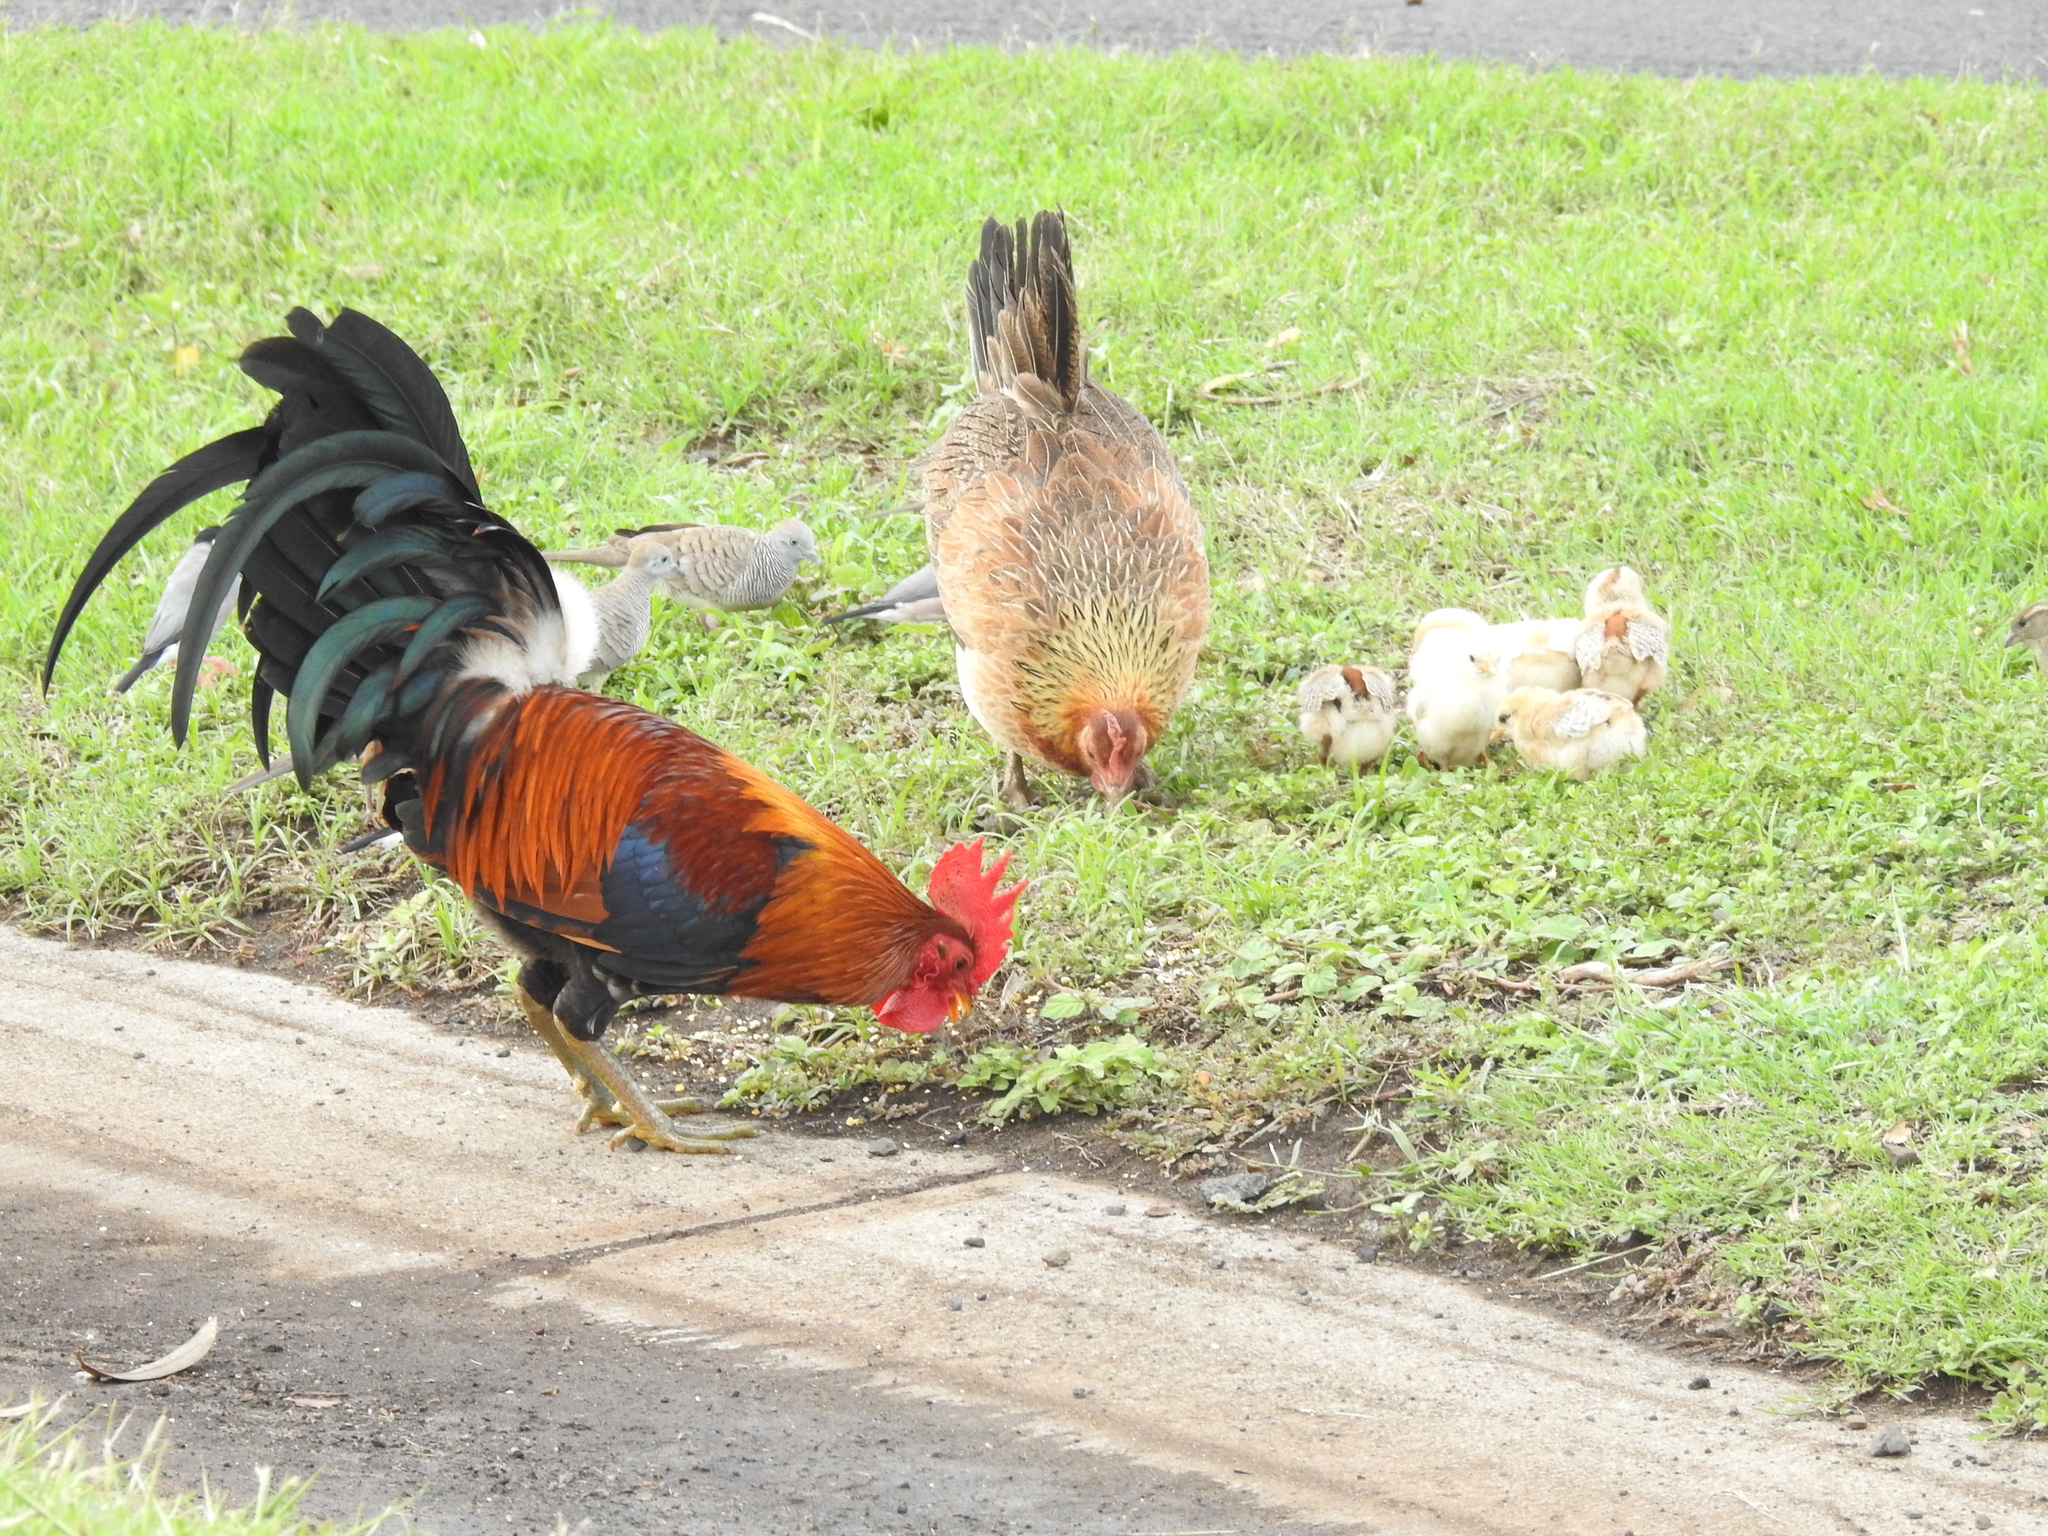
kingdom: Animalia
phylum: Chordata
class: Aves
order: Galliformes
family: Phasianidae
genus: Gallus
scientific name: Gallus gallus
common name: Red junglefowl
